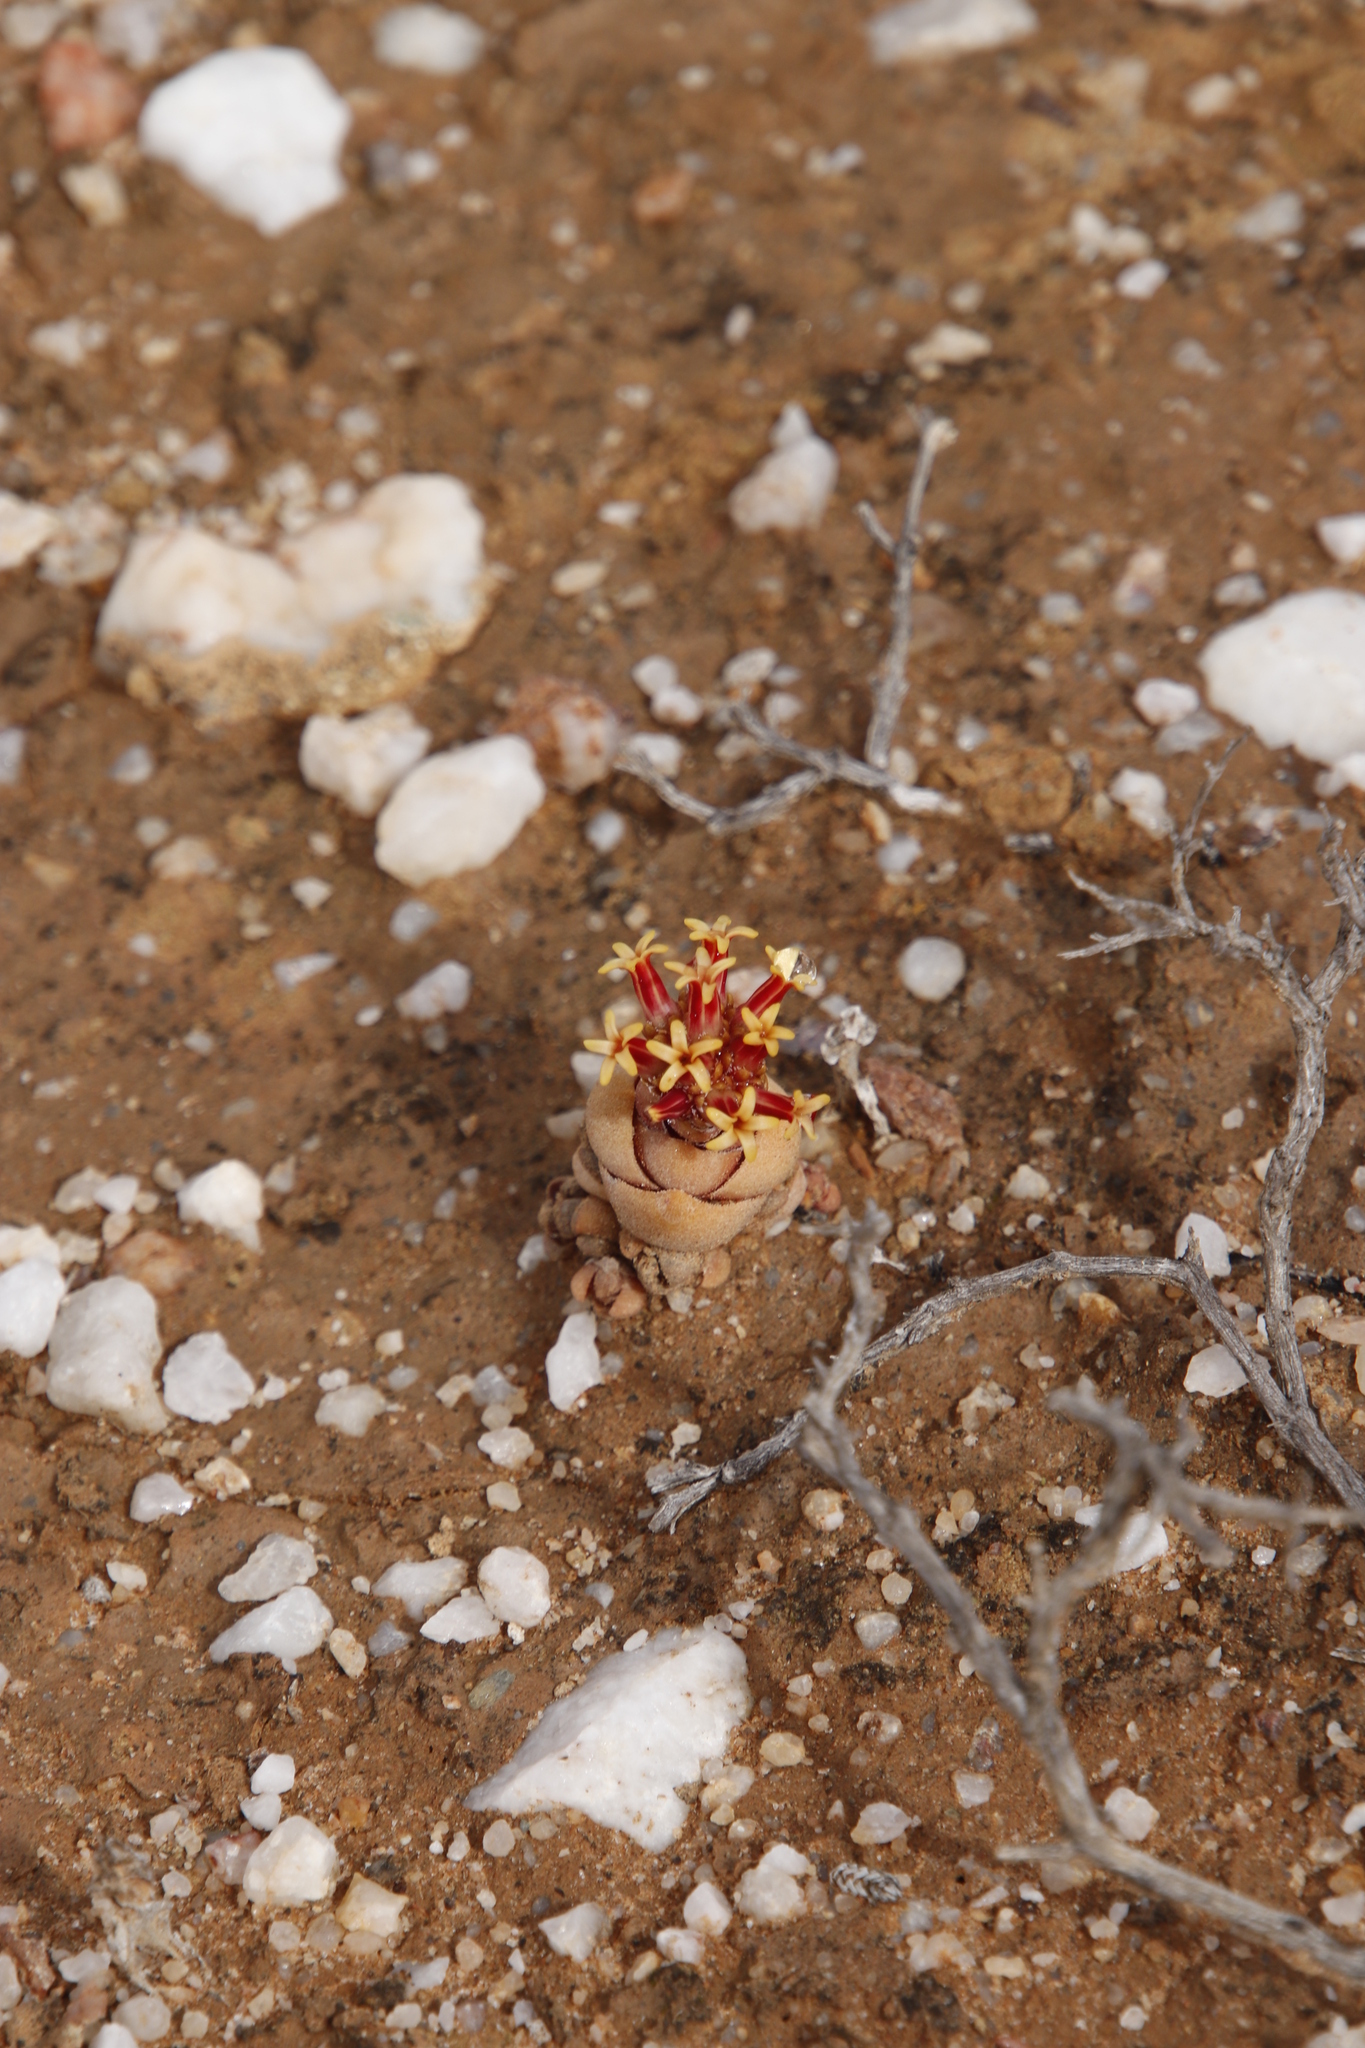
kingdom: Plantae
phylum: Tracheophyta
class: Magnoliopsida
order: Saxifragales
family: Crassulaceae
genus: Crassula
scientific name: Crassula columnaris
